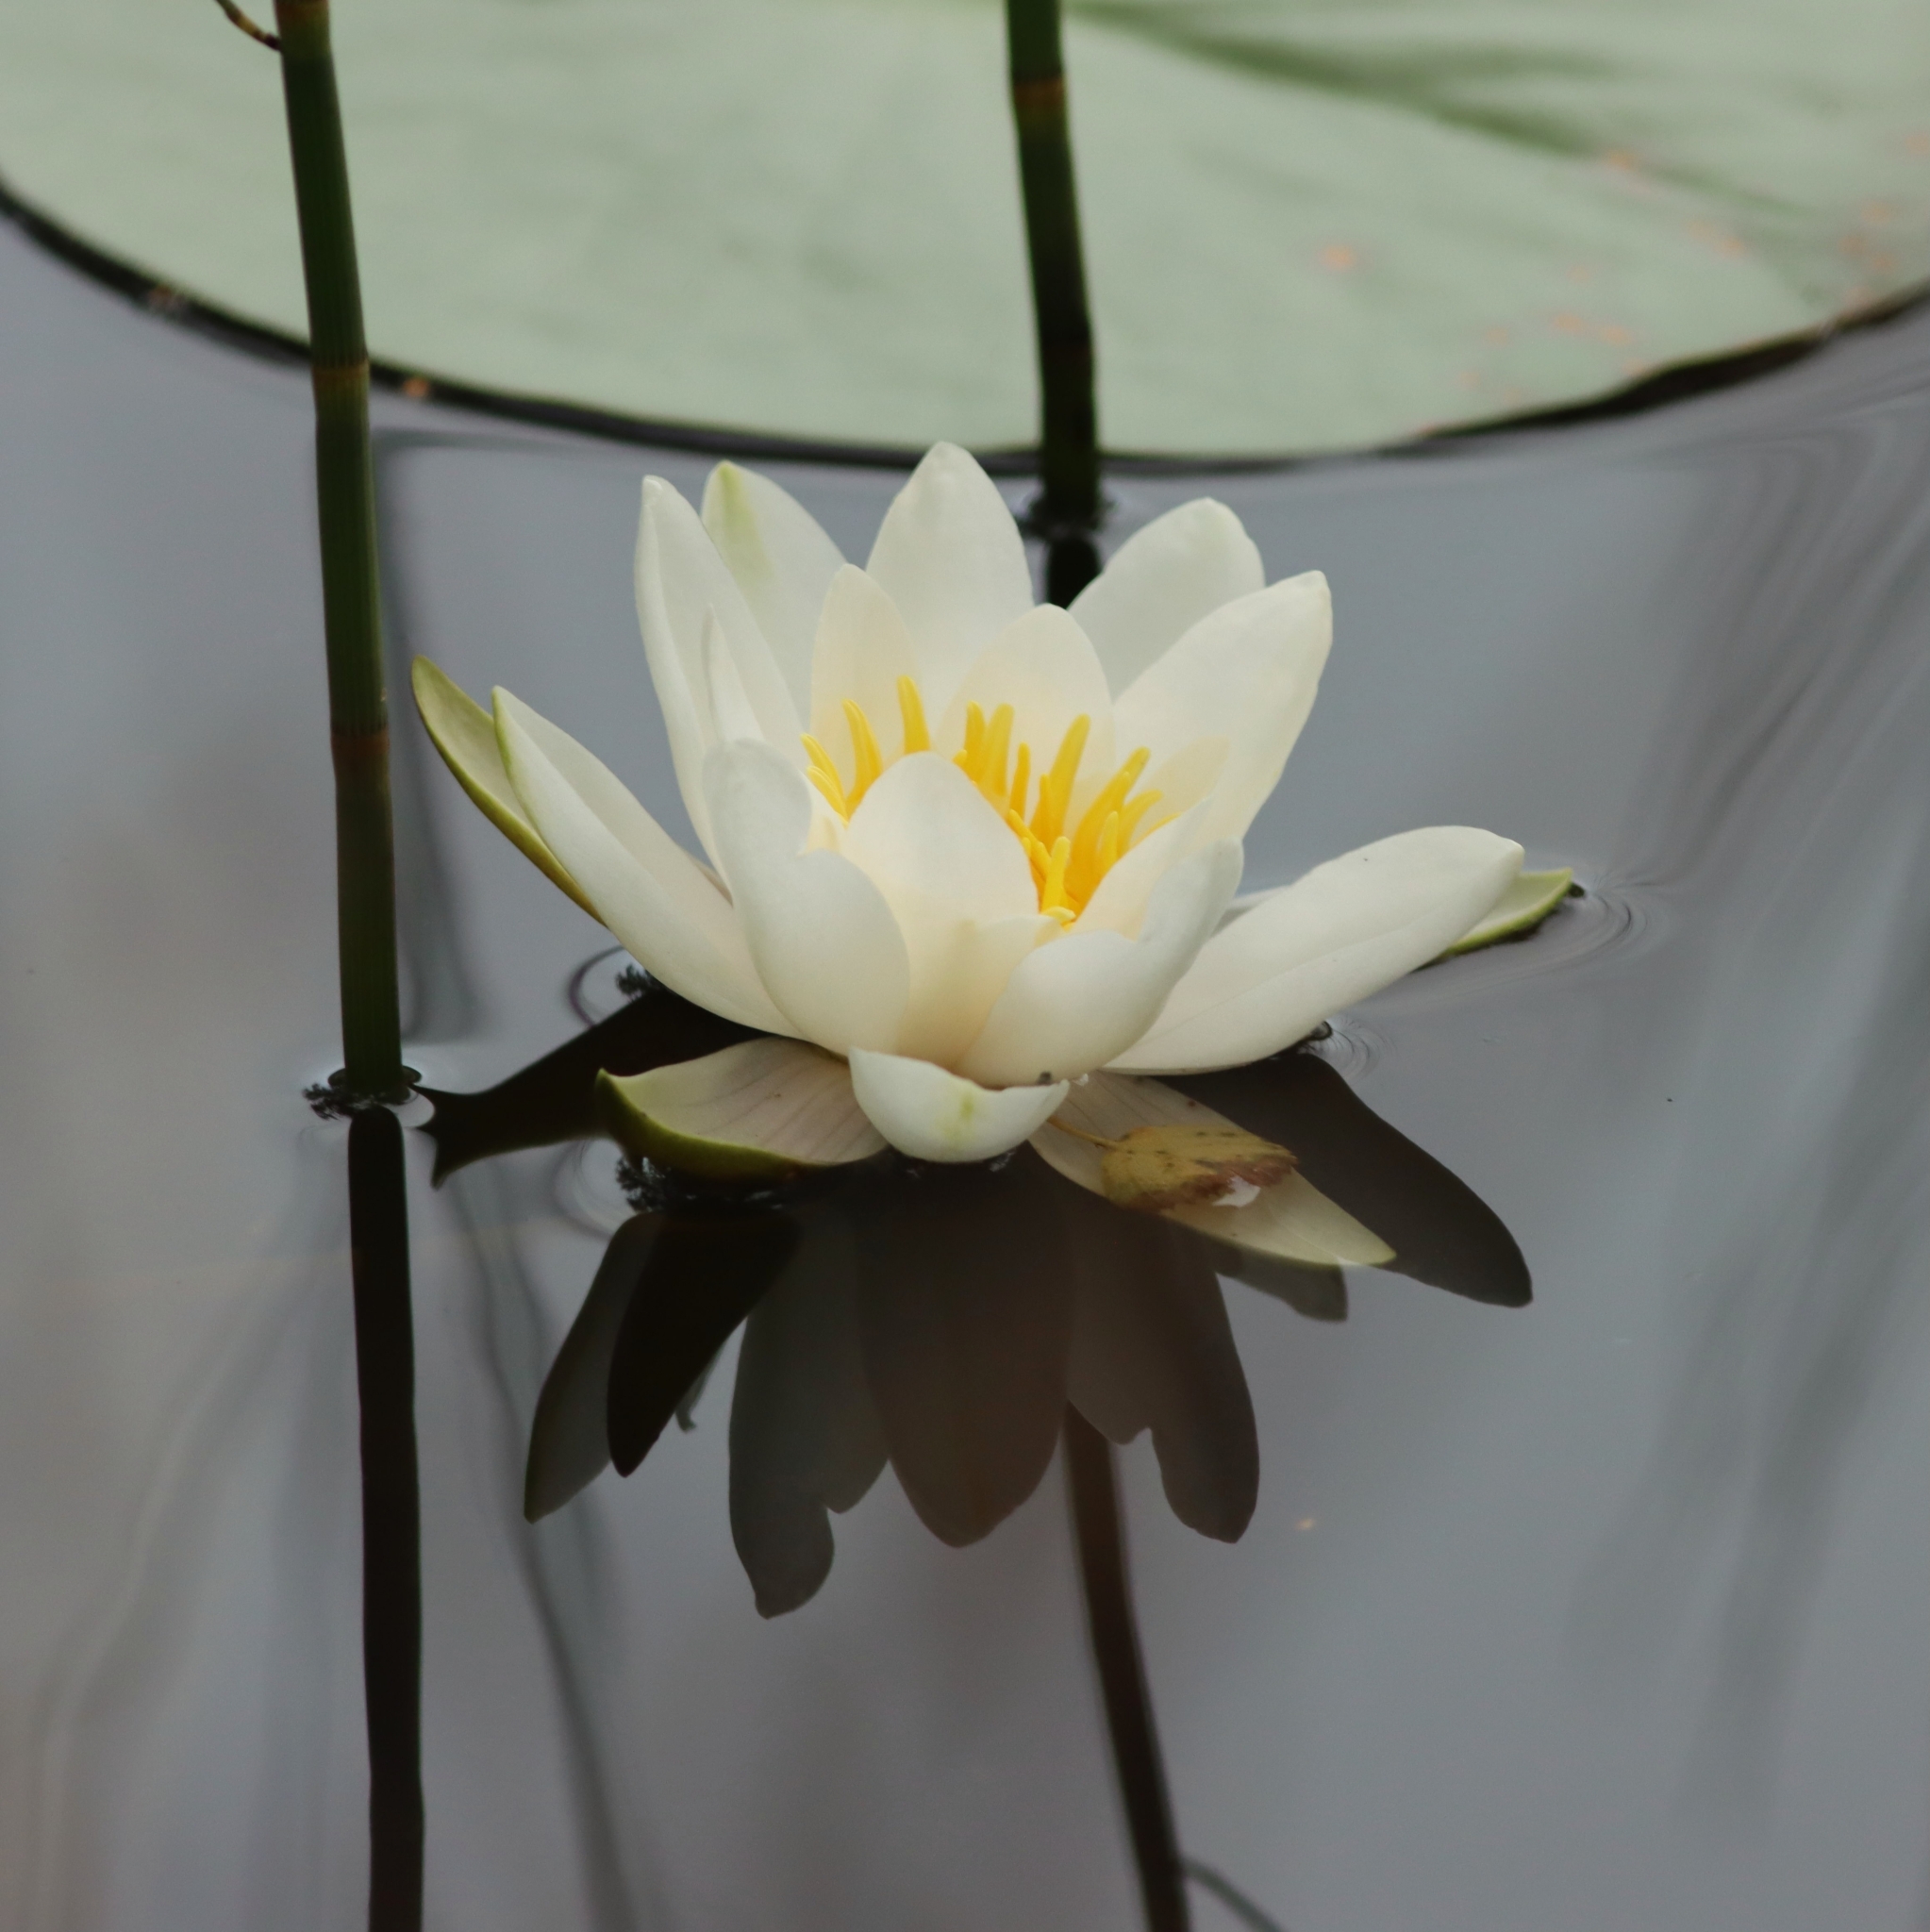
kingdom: Plantae
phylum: Tracheophyta
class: Magnoliopsida
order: Nymphaeales
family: Nymphaeaceae
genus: Nymphaea
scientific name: Nymphaea alba
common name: White water-lily
